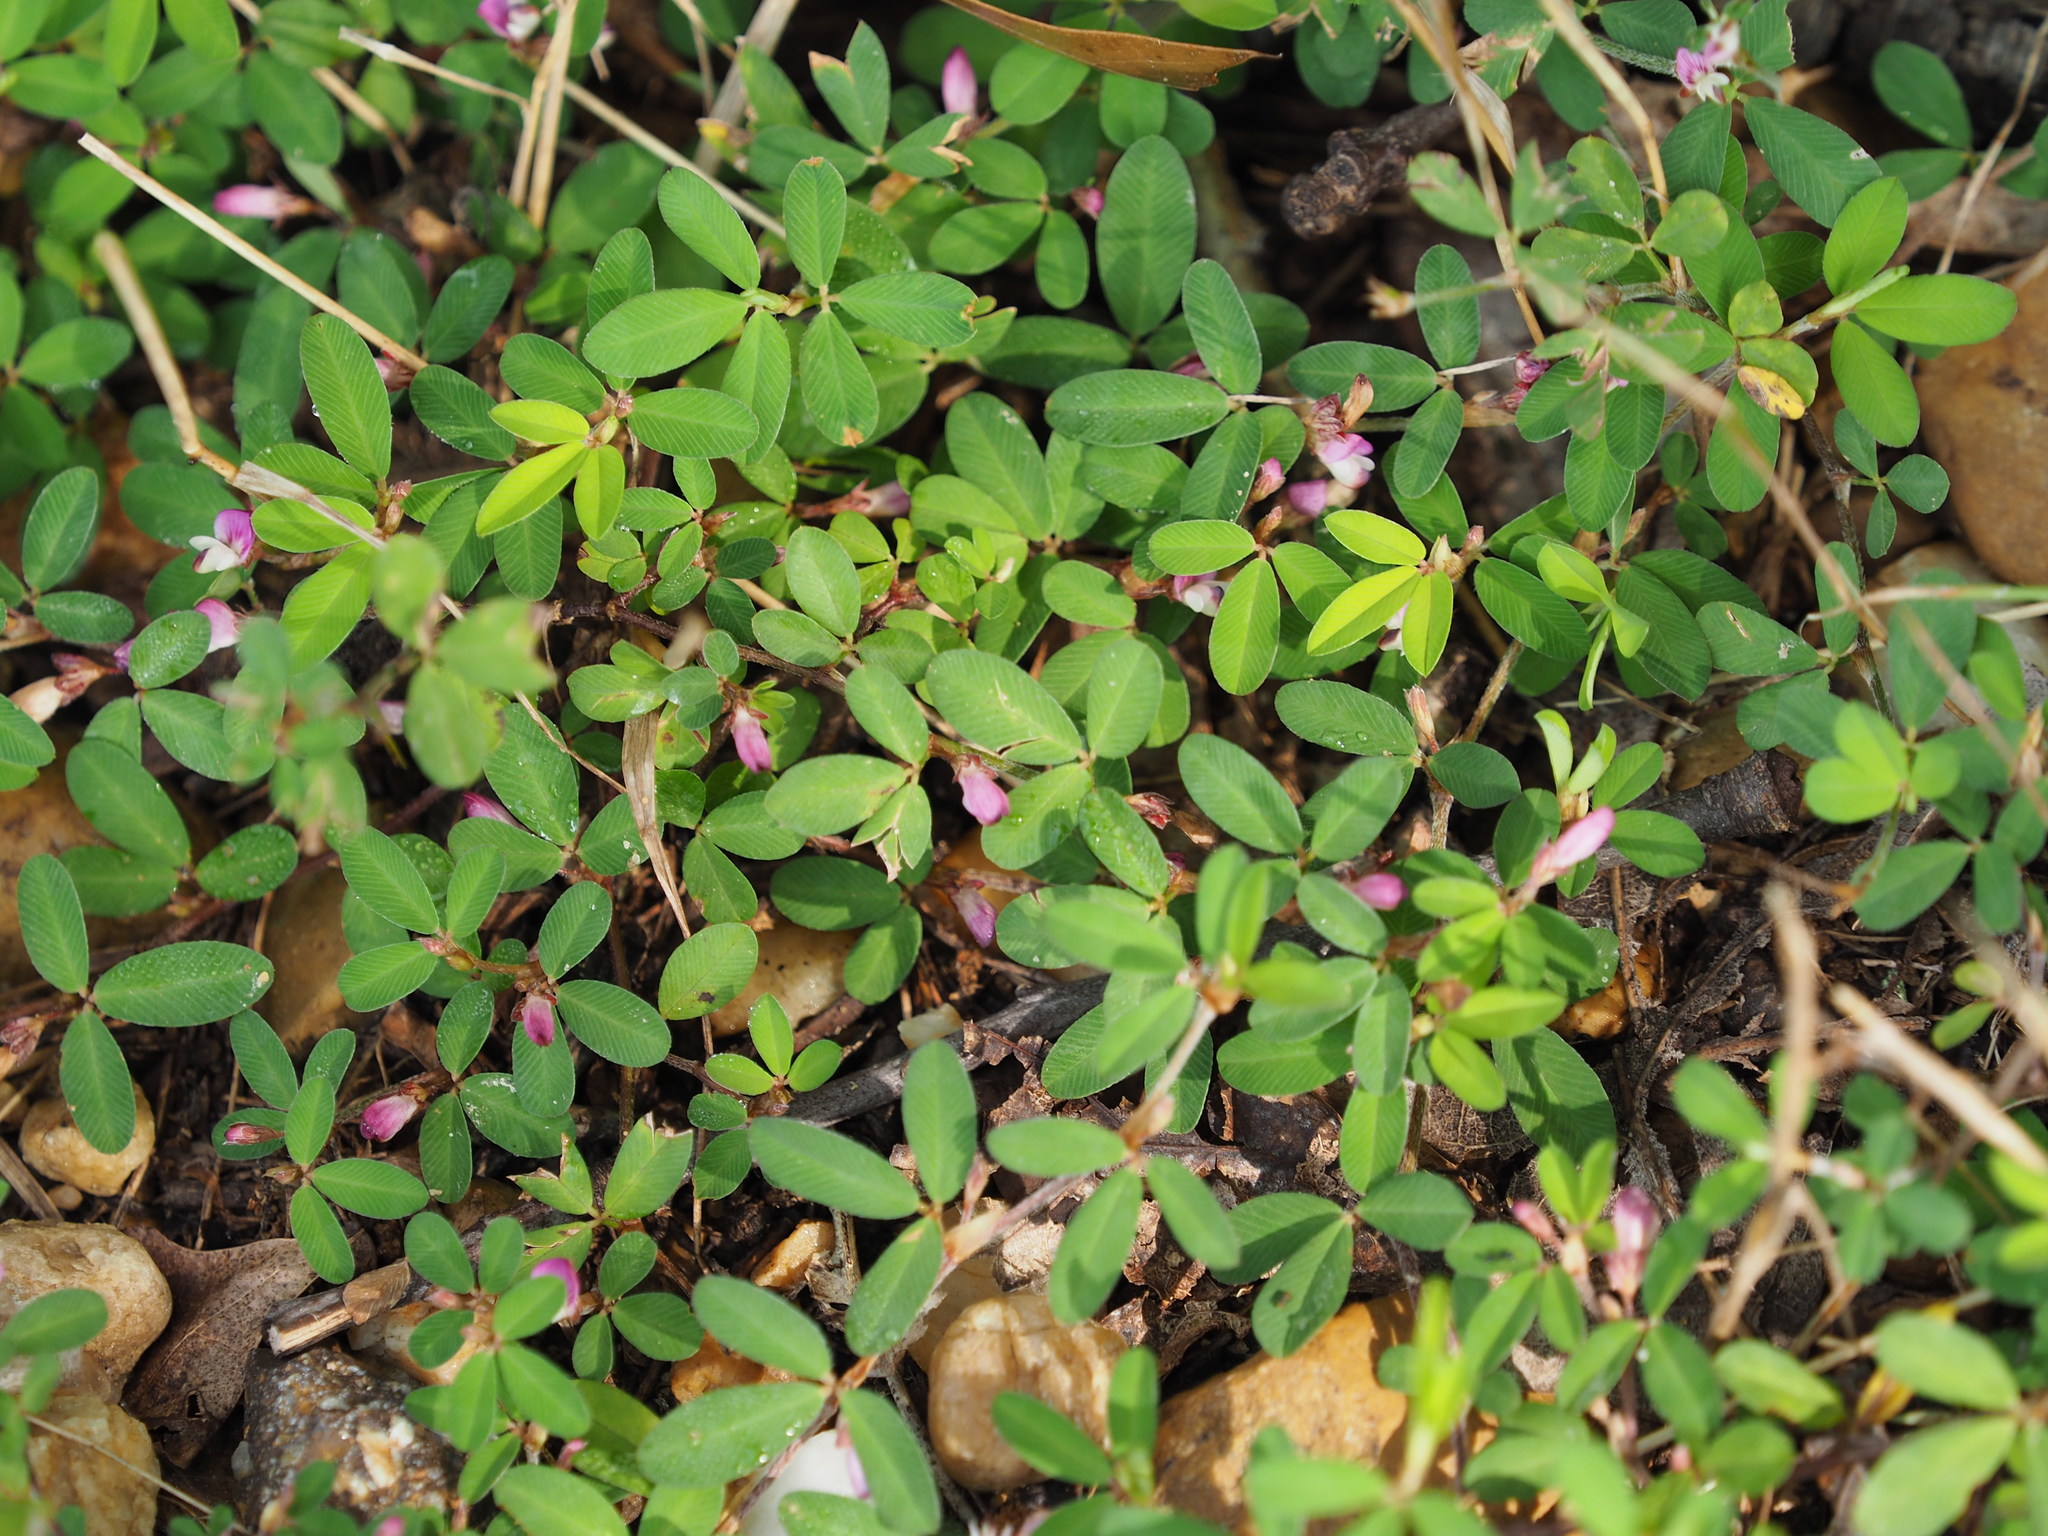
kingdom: Plantae
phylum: Tracheophyta
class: Magnoliopsida
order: Fabales
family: Fabaceae
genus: Kummerowia
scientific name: Kummerowia striata
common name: Japanese clover
